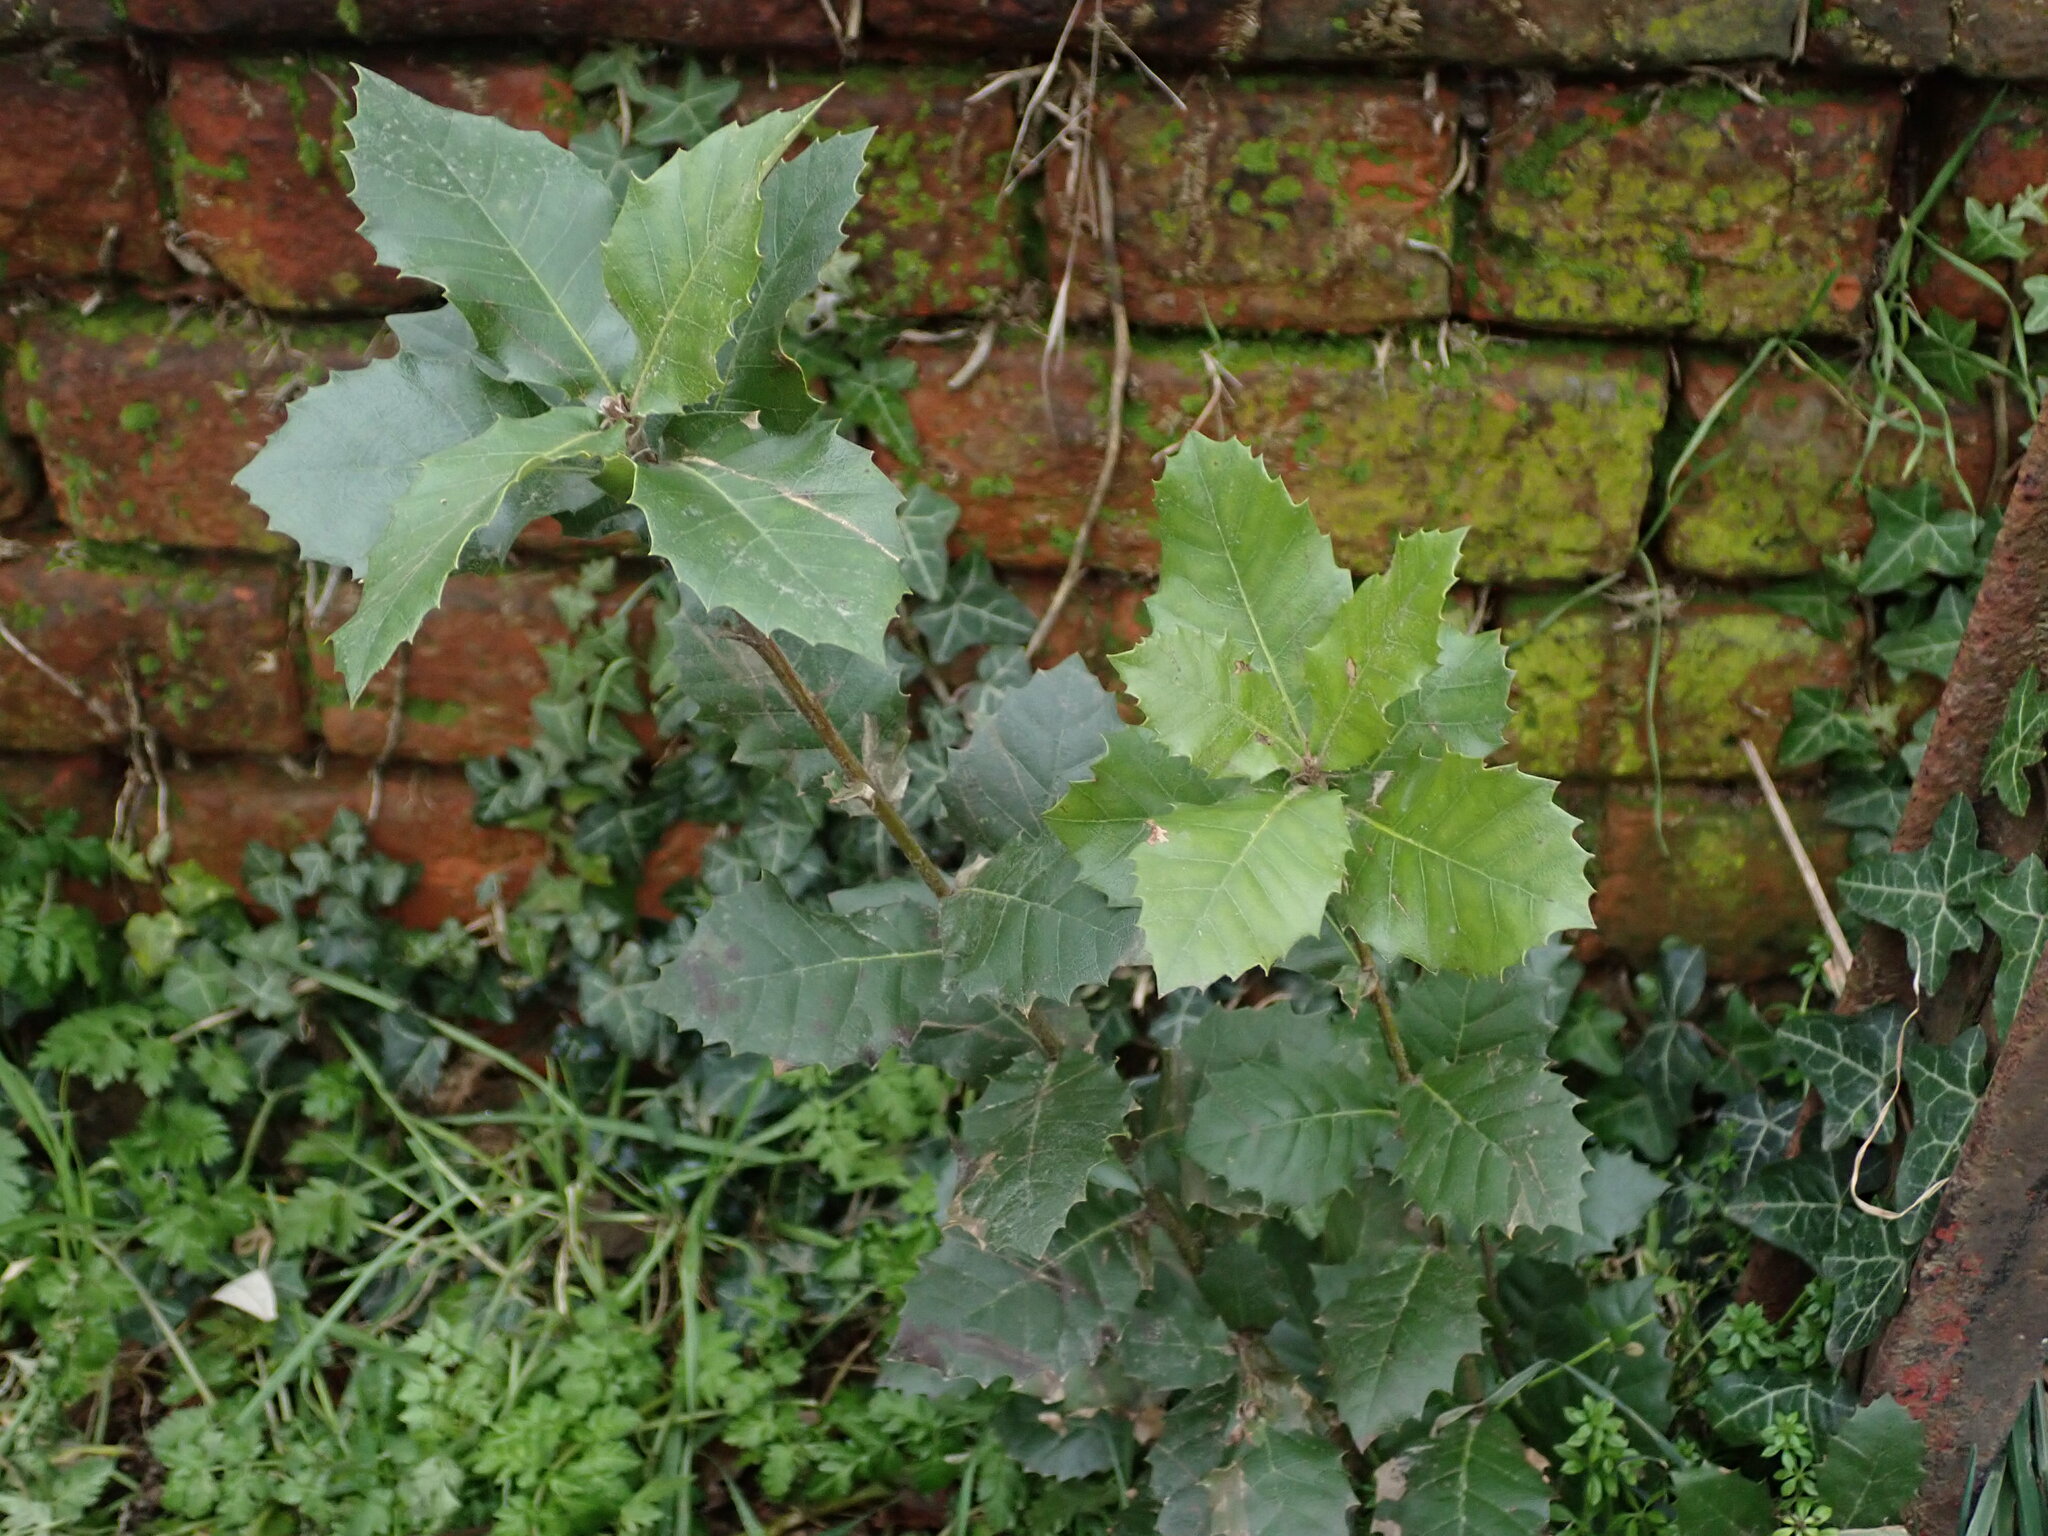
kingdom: Plantae
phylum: Tracheophyta
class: Magnoliopsida
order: Fagales
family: Fagaceae
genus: Quercus
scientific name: Quercus ilex
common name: Evergreen oak
